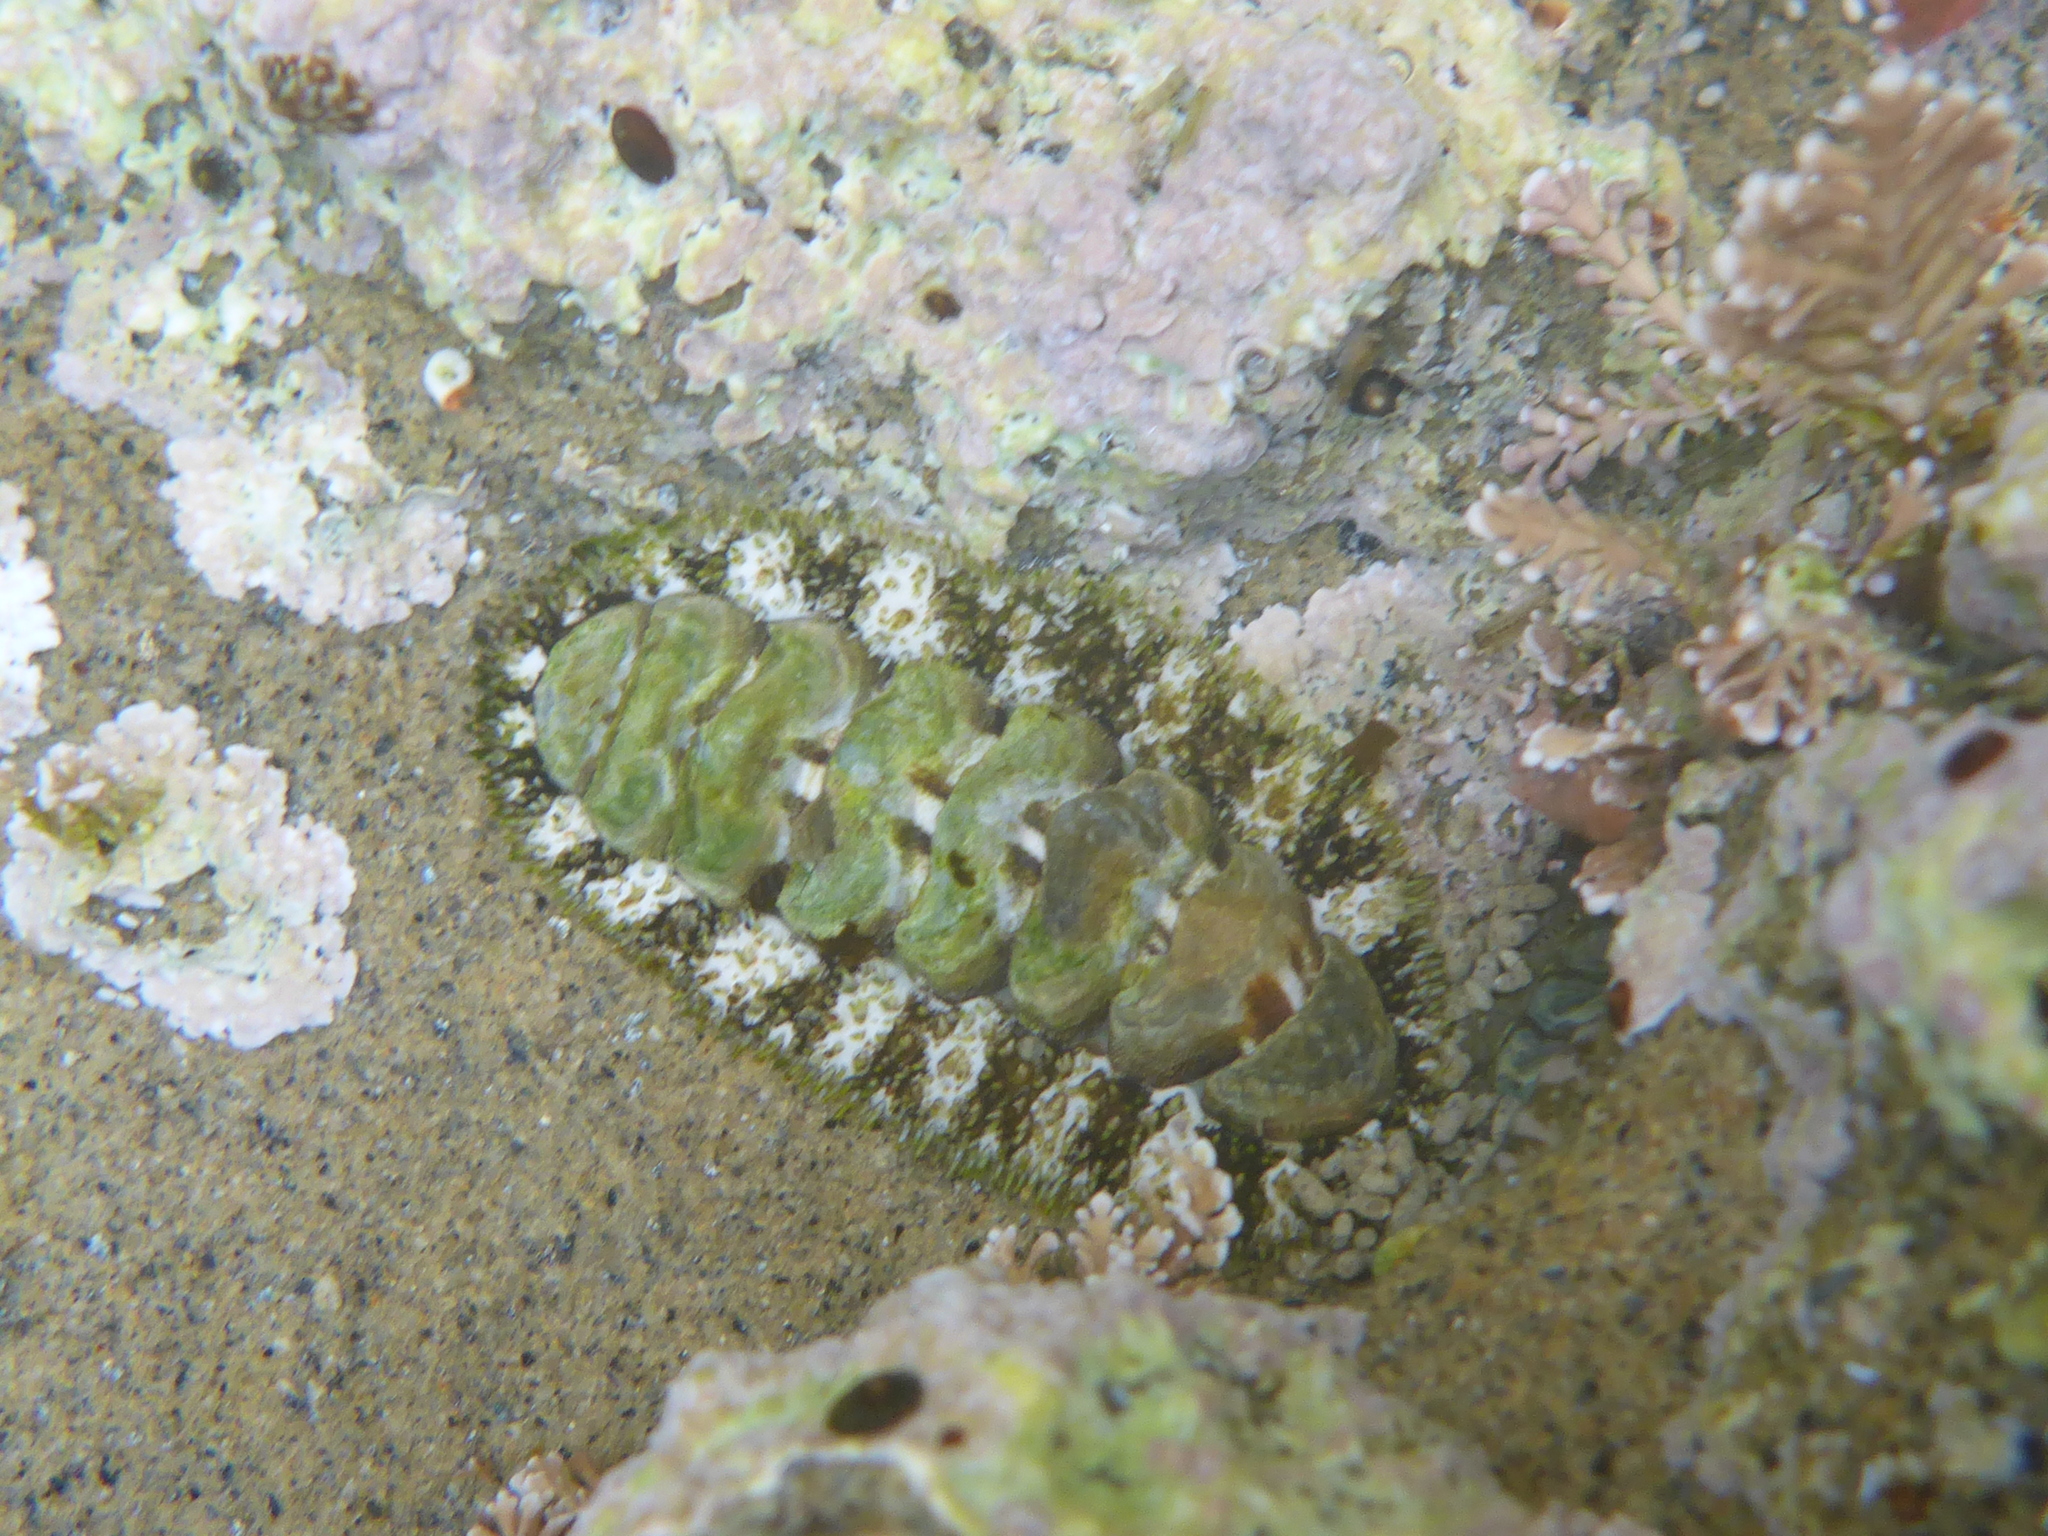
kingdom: Animalia
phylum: Mollusca
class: Polyplacophora
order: Chitonida
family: Tonicellidae
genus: Nuttallina
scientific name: Nuttallina californica
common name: California nuttall chiton
